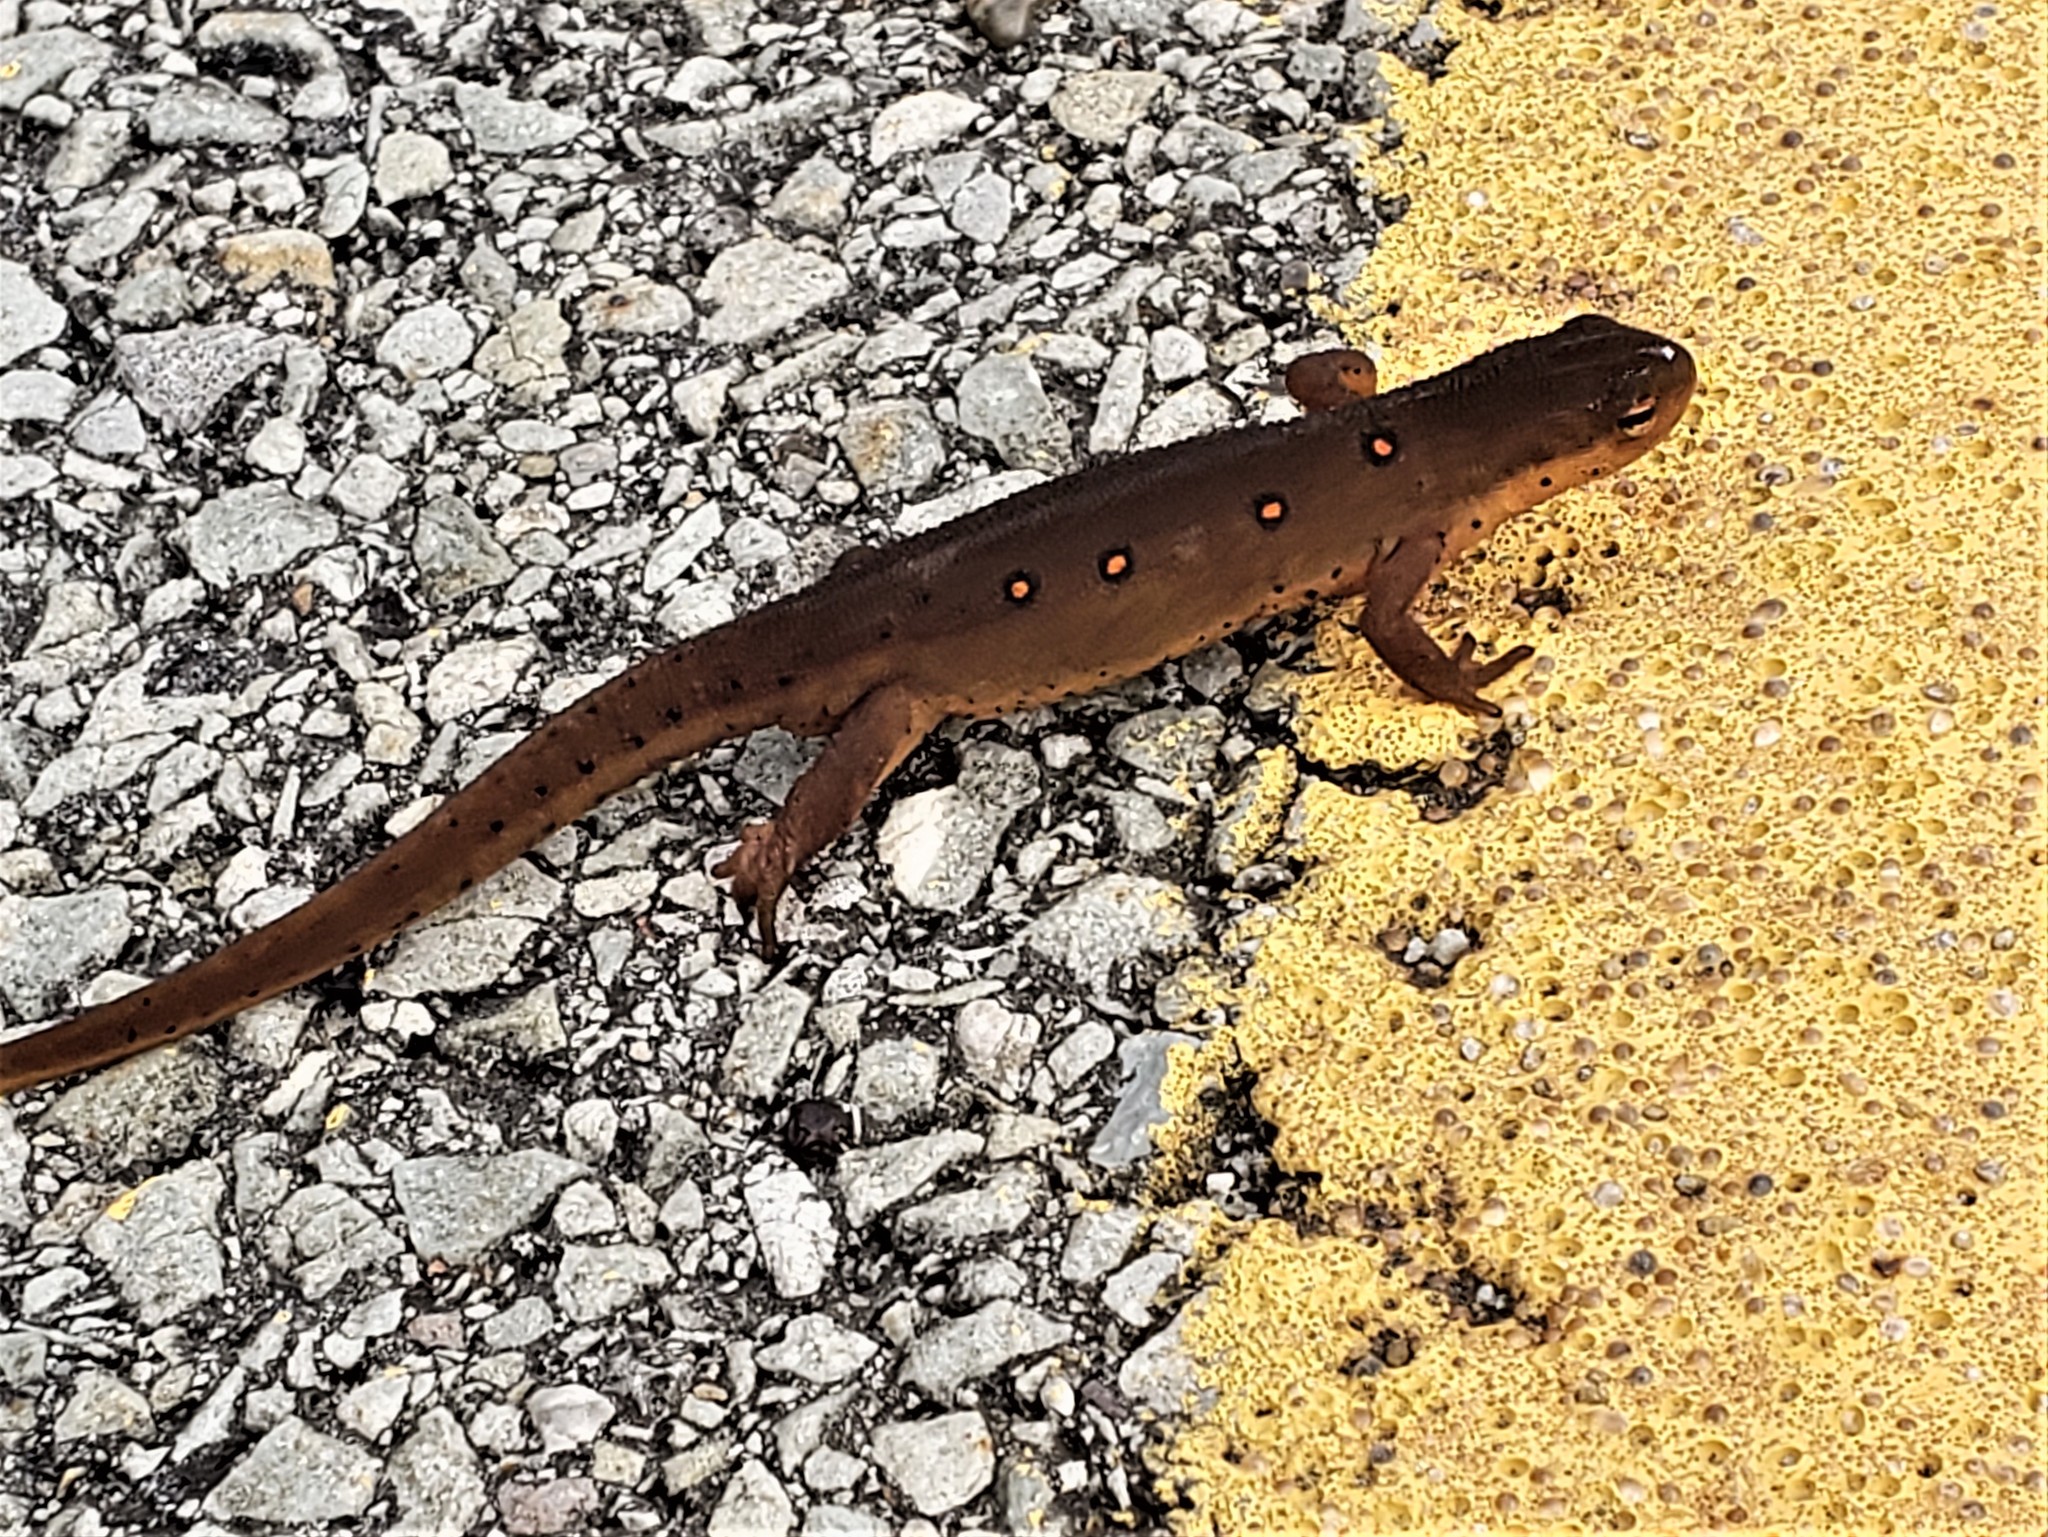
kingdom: Animalia
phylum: Chordata
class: Amphibia
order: Caudata
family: Salamandridae
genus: Notophthalmus
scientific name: Notophthalmus viridescens
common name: Eastern newt
